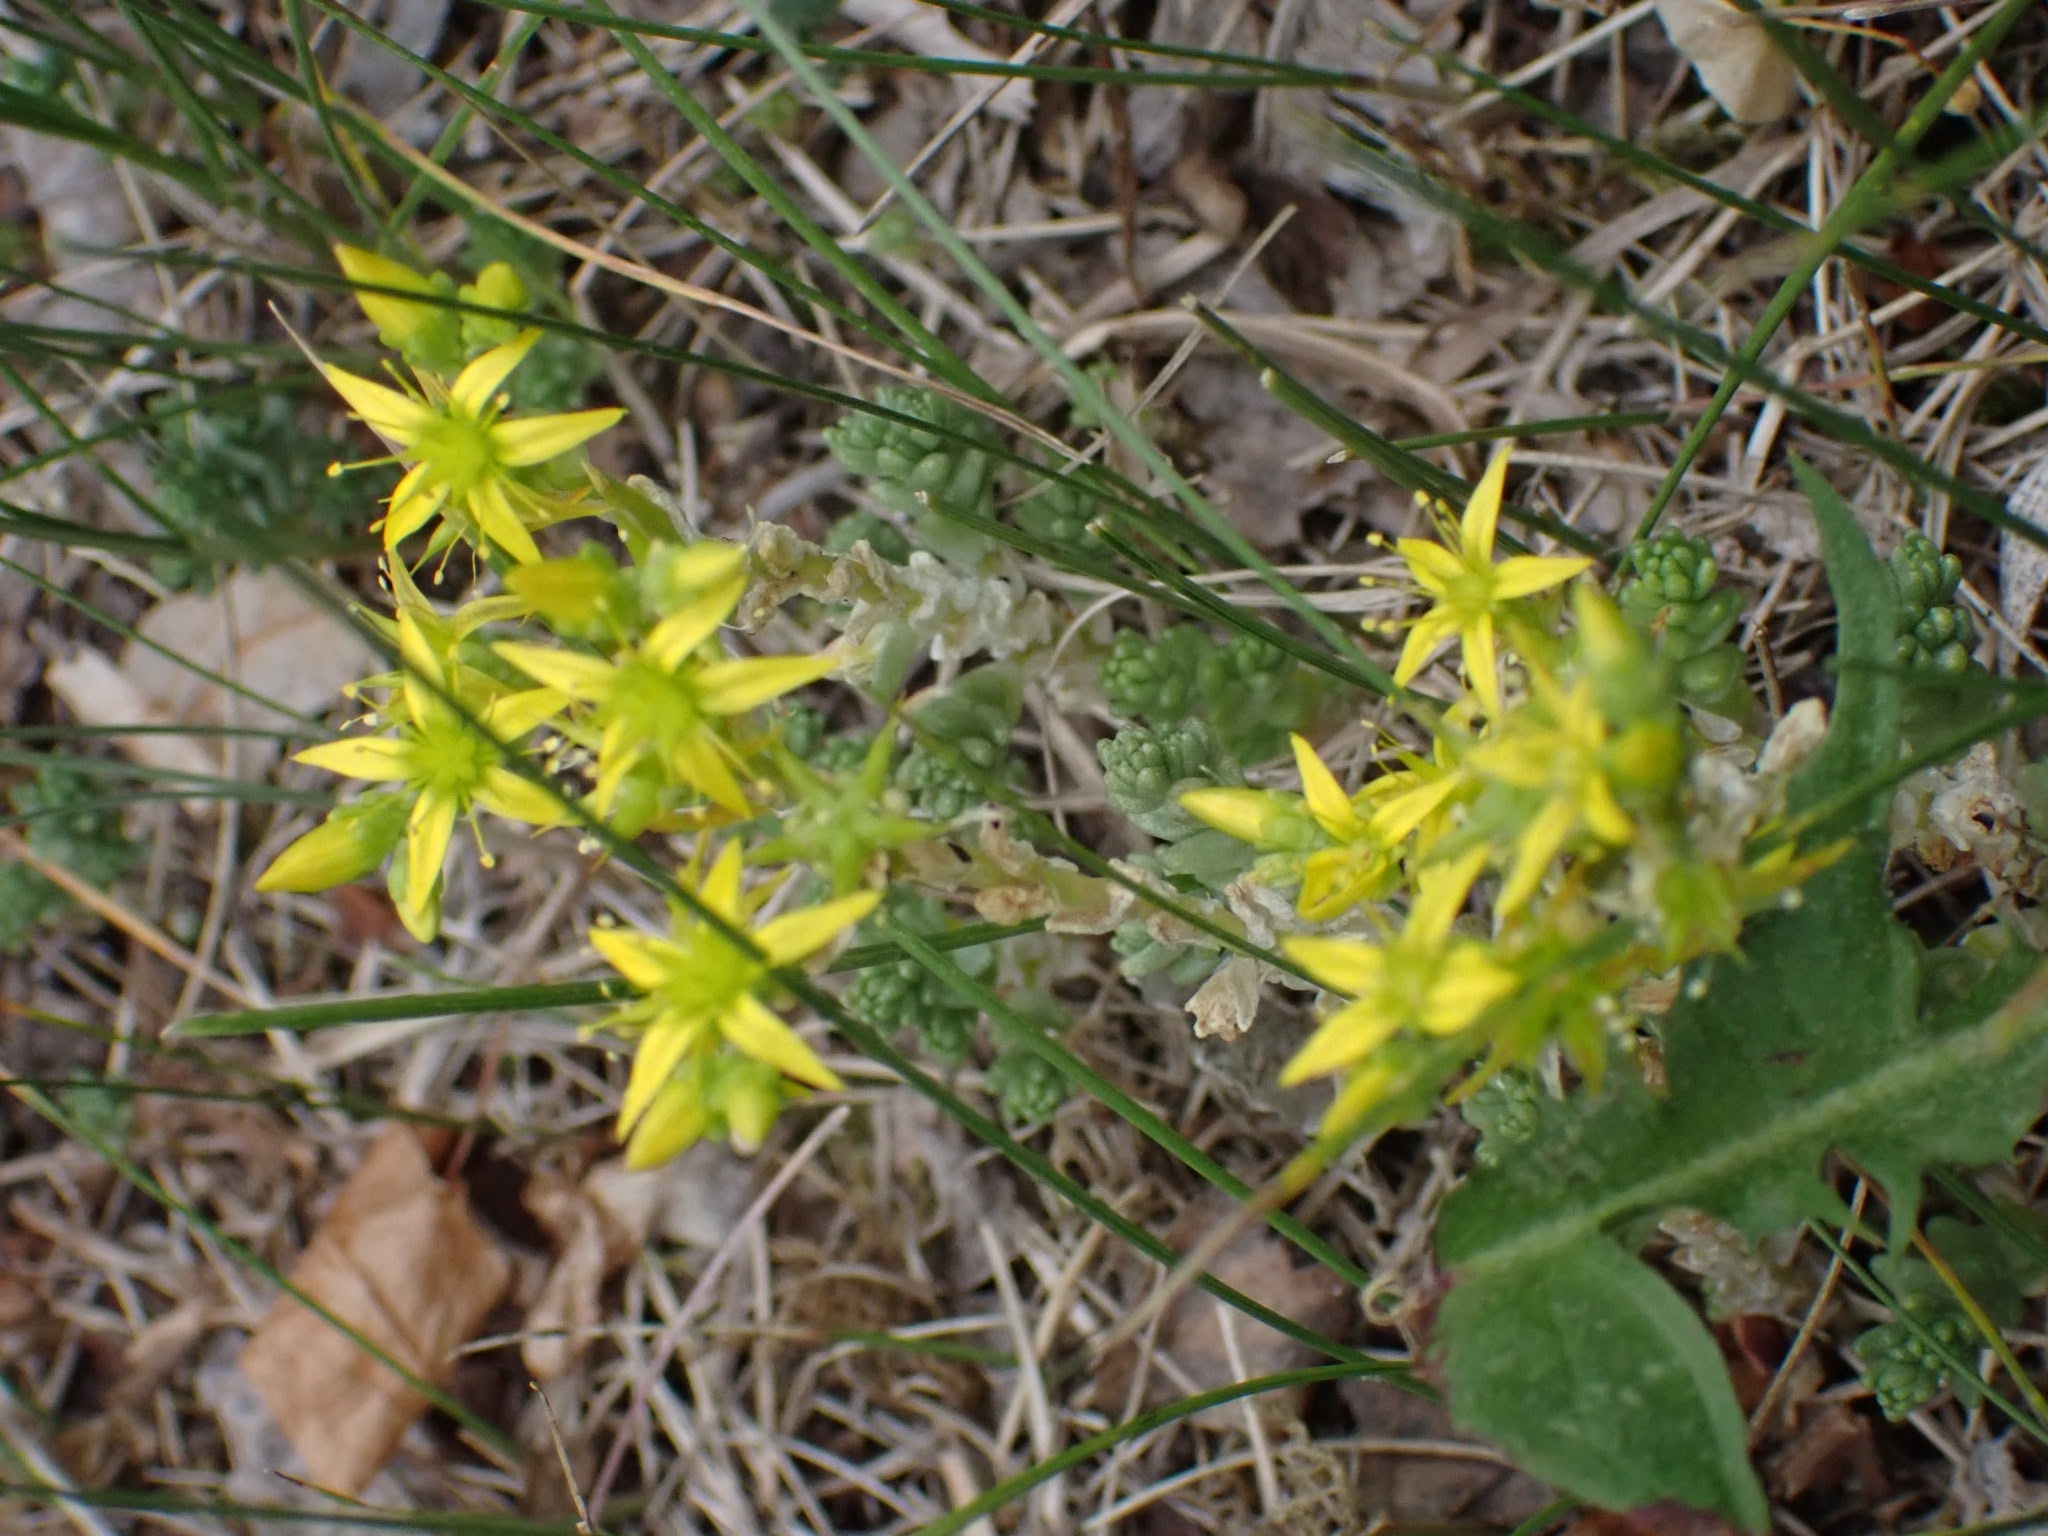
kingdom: Plantae
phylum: Tracheophyta
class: Magnoliopsida
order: Saxifragales
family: Crassulaceae
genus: Sedum
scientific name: Sedum acre
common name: Biting stonecrop
